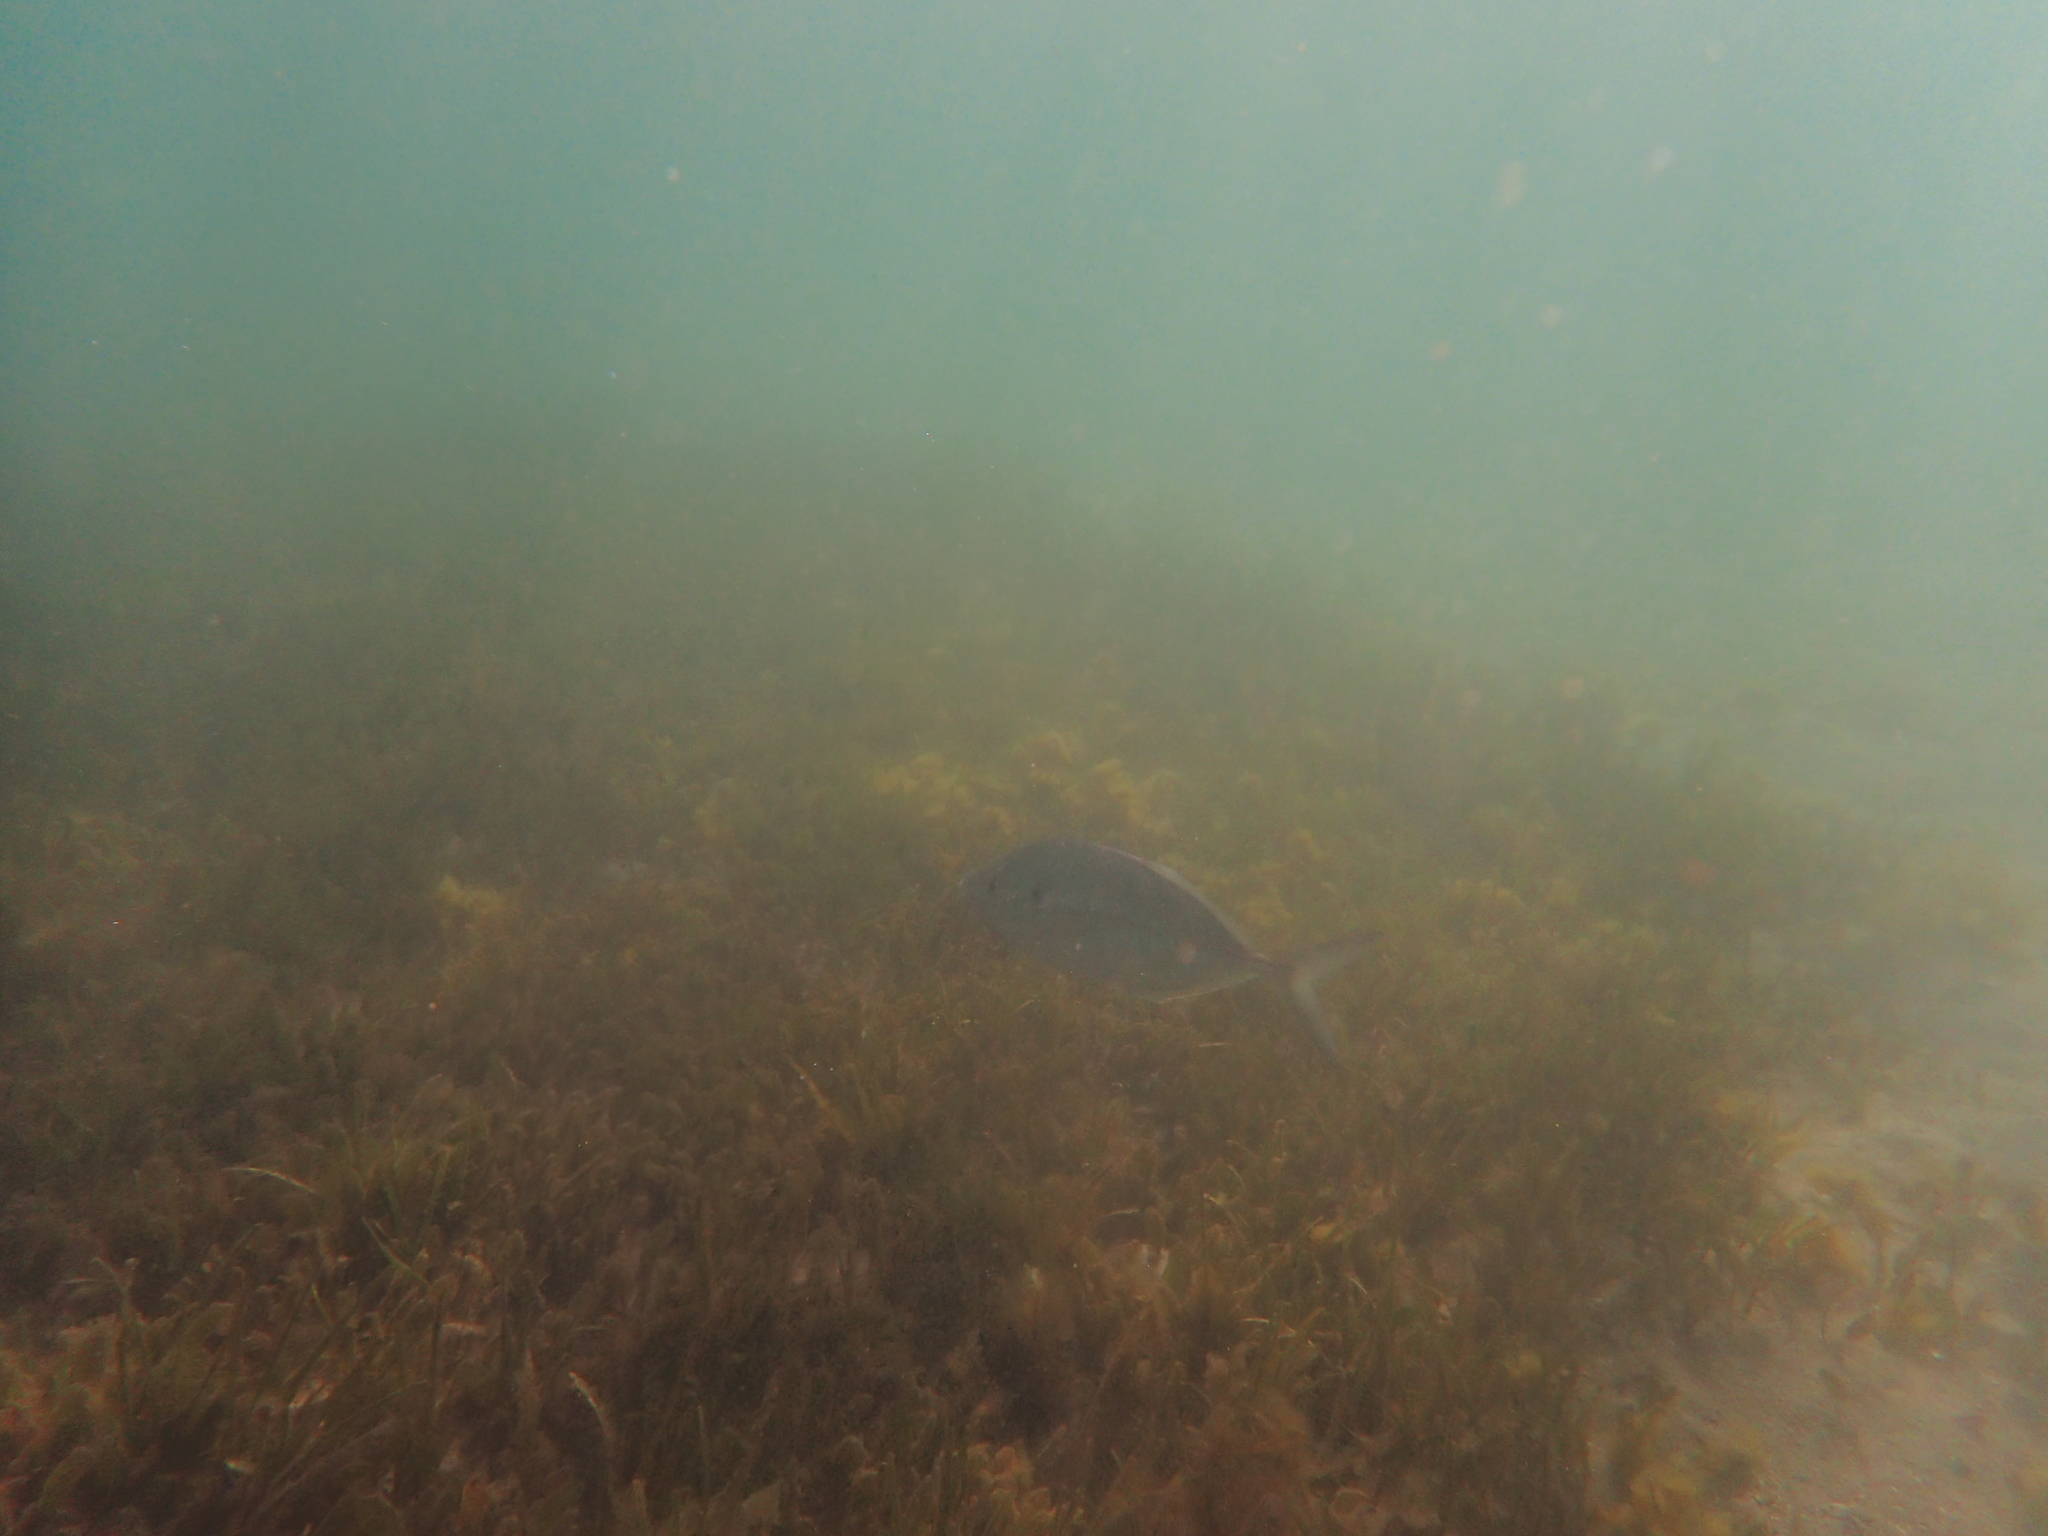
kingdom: Animalia
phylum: Chordata
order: Perciformes
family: Sparidae
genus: Acanthopagrus
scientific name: Acanthopagrus australis
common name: Surf bream
